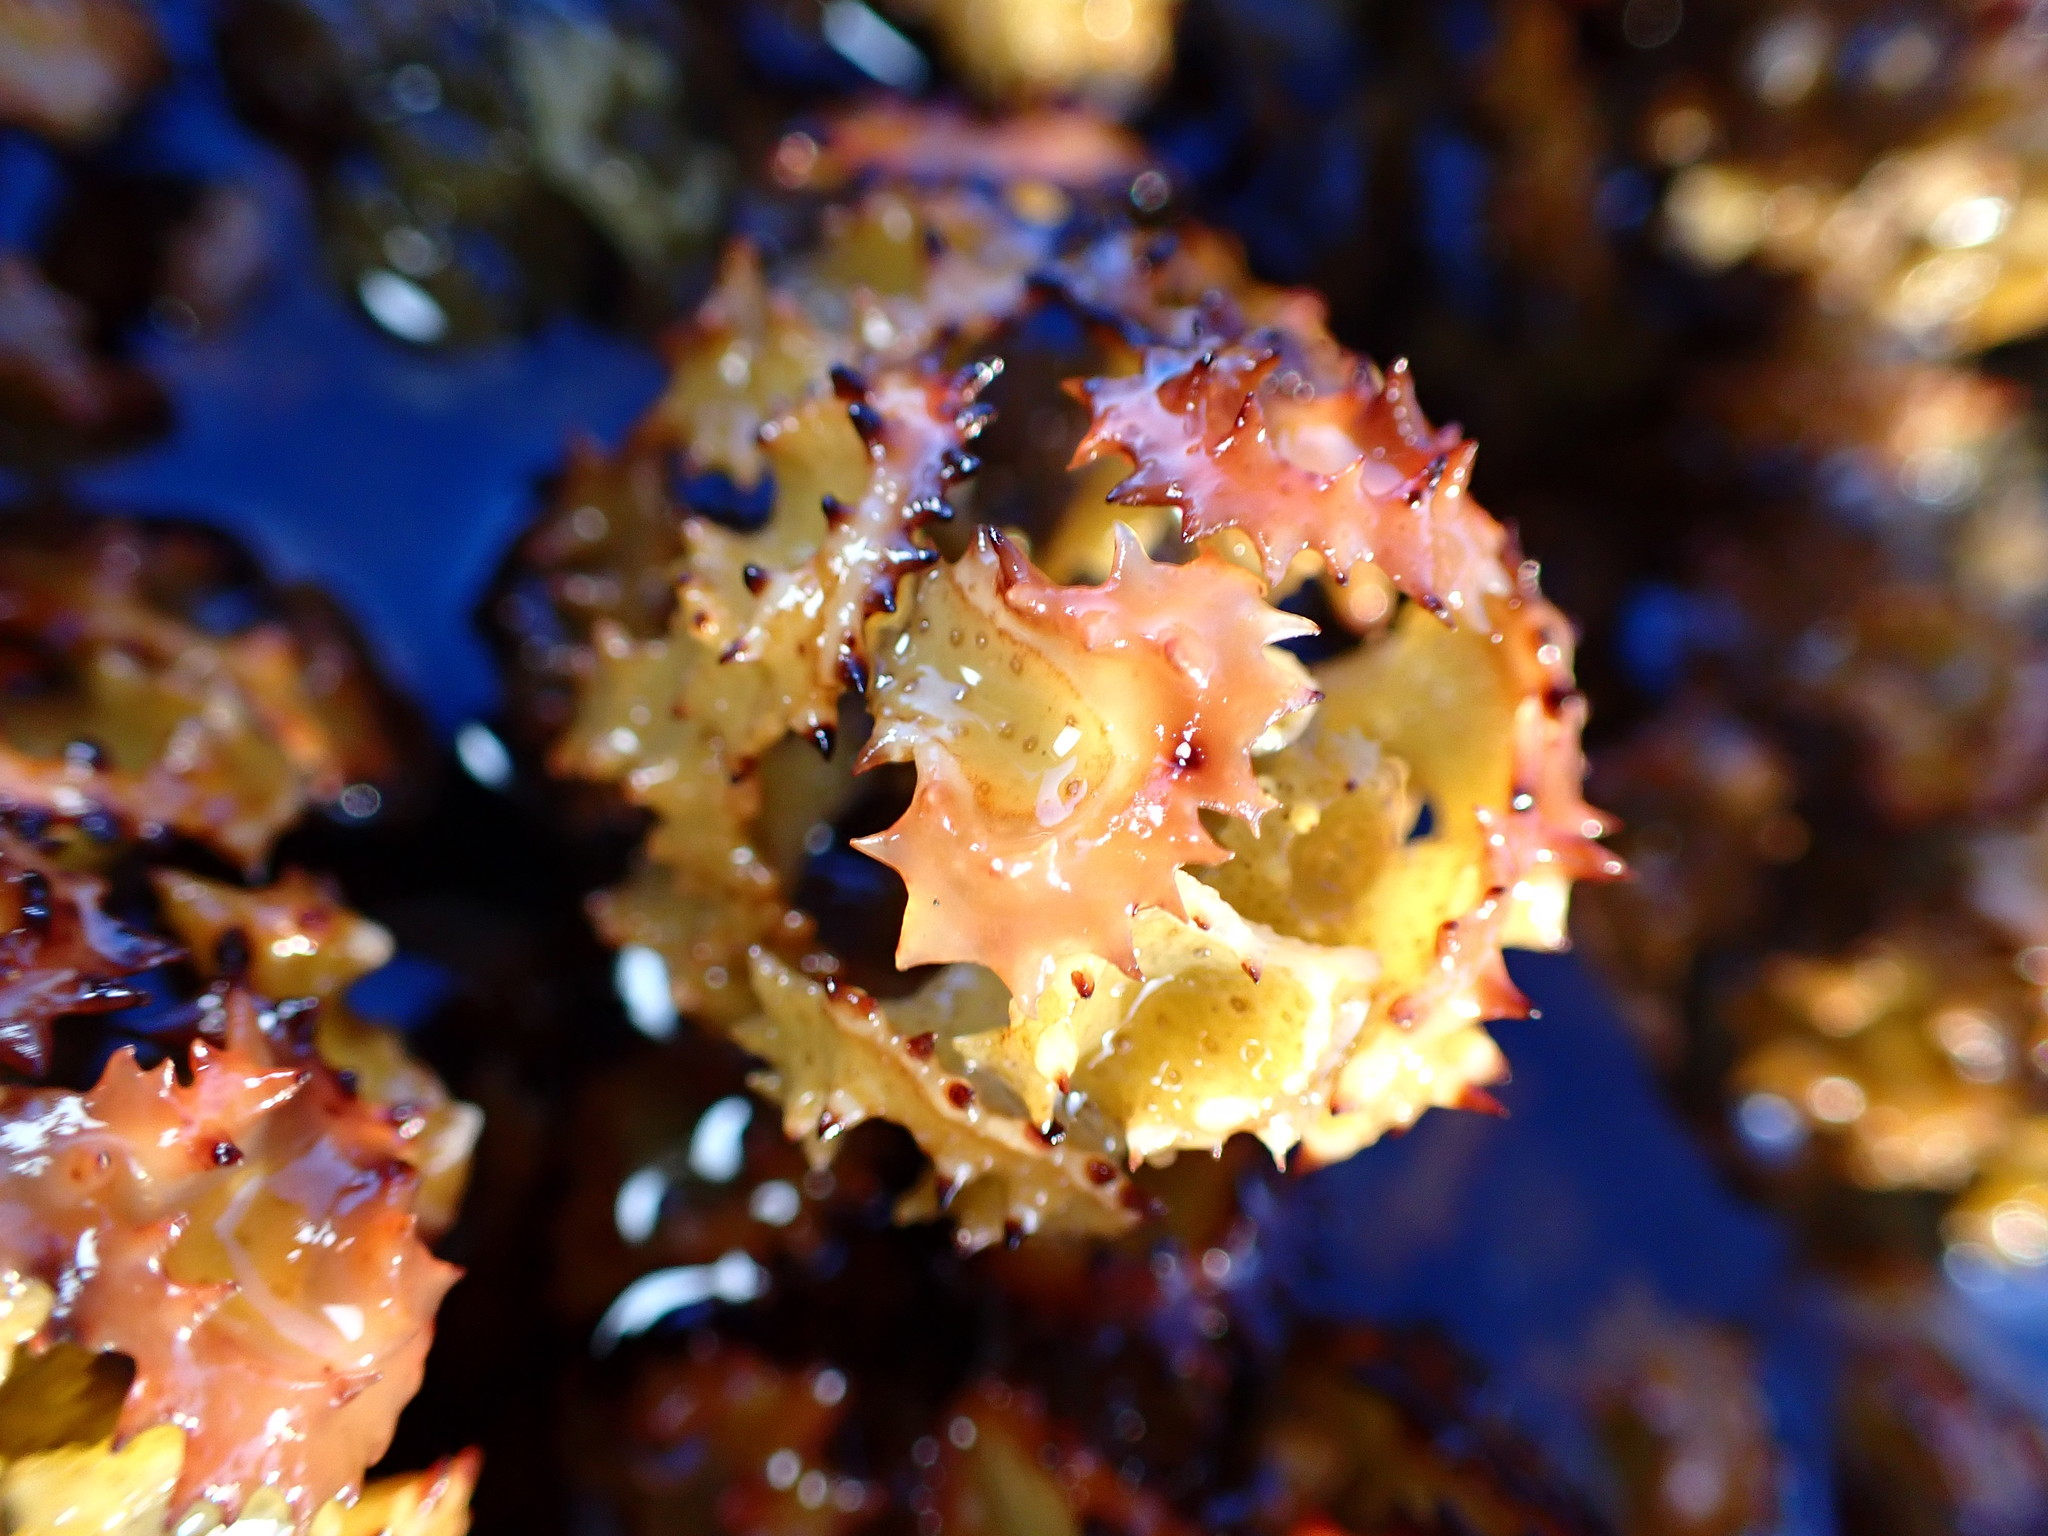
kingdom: Chromista
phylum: Ochrophyta
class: Phaeophyceae
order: Fucales
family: Sargassaceae
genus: Turbinaria
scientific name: Turbinaria ornata
